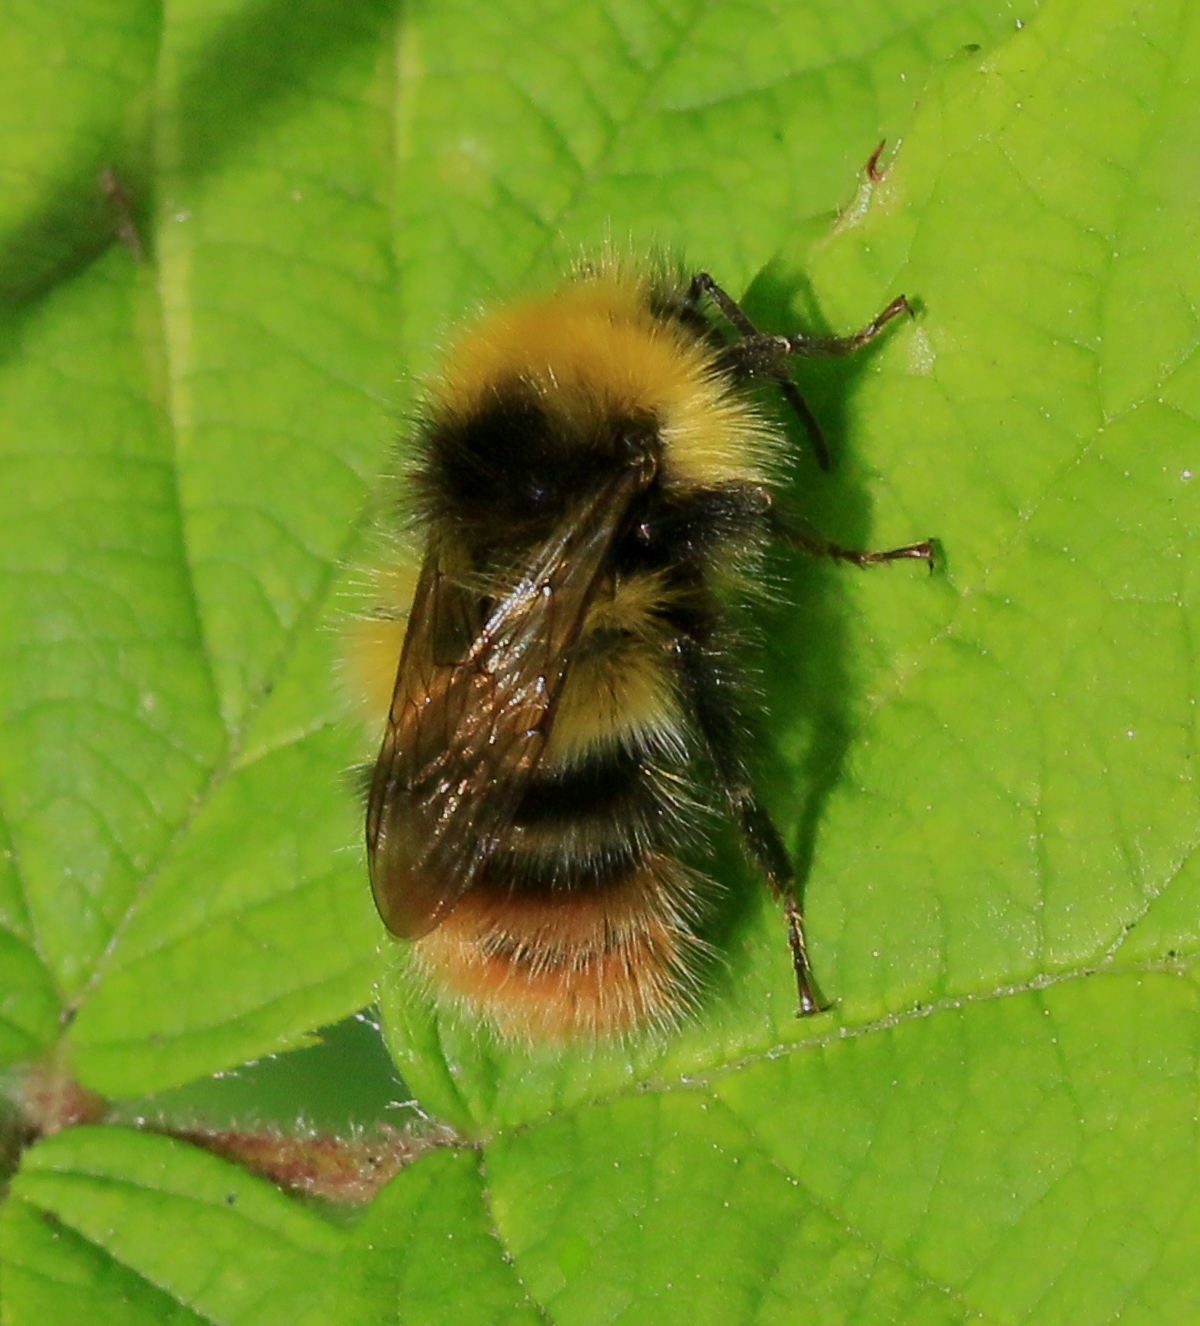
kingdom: Animalia
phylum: Arthropoda
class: Insecta
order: Hymenoptera
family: Apidae
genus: Bombus
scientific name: Bombus pratorum
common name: Early humble-bee
